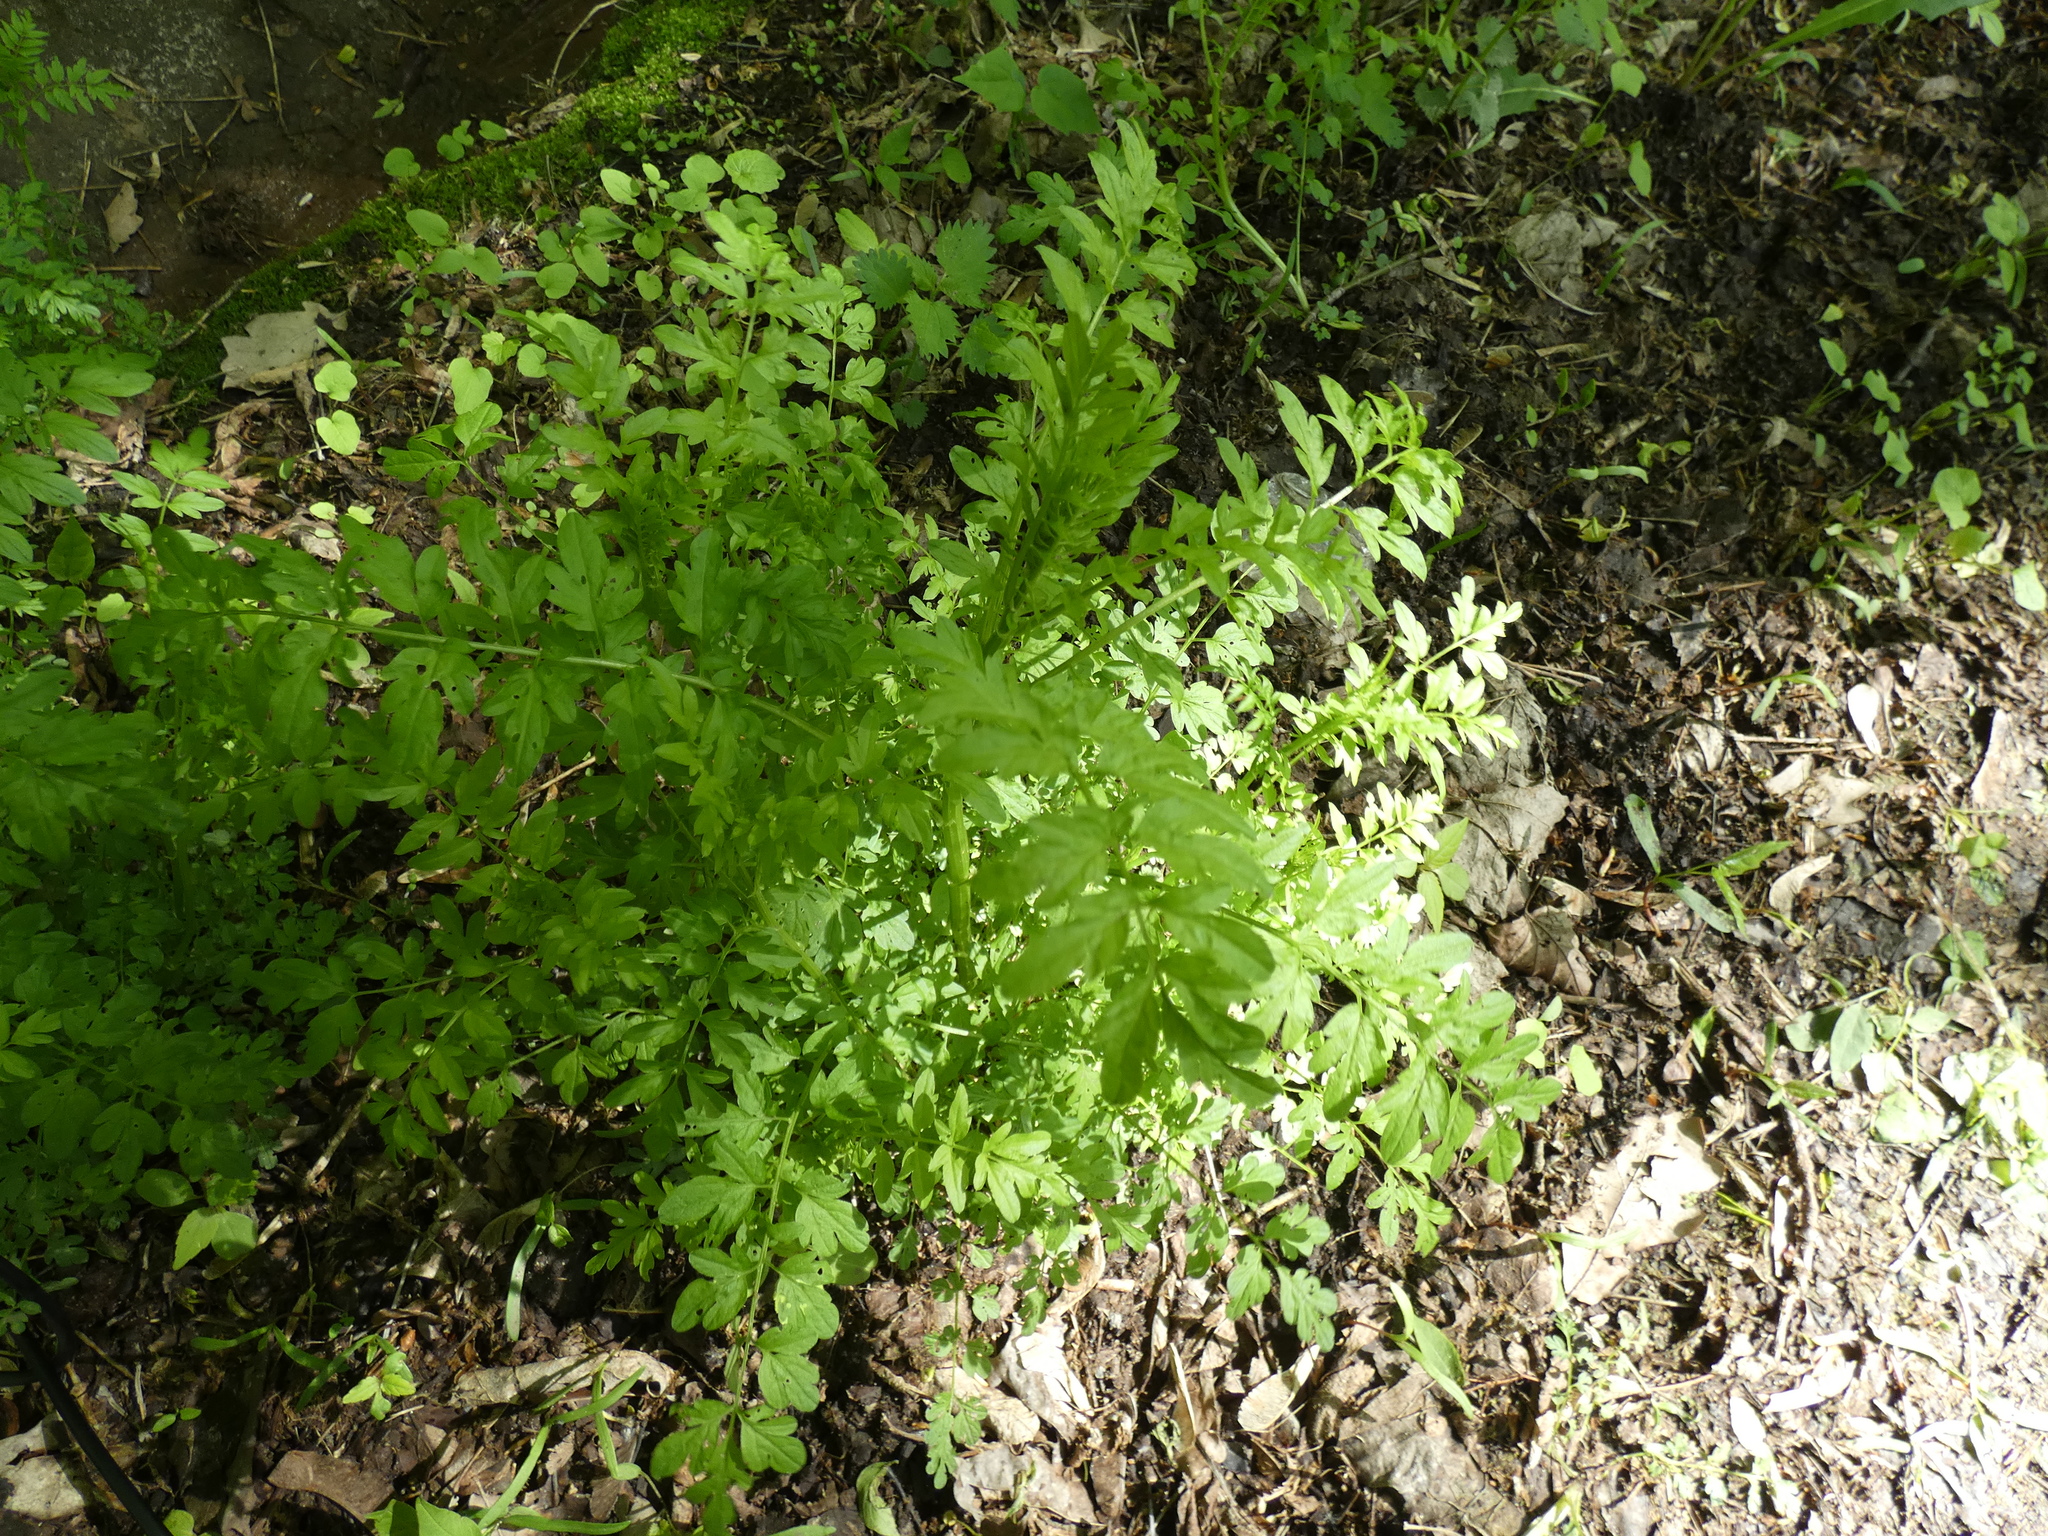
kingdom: Plantae
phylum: Tracheophyta
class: Magnoliopsida
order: Brassicales
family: Brassicaceae
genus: Cardamine
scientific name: Cardamine impatiens
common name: Narrow-leaved bitter-cress
